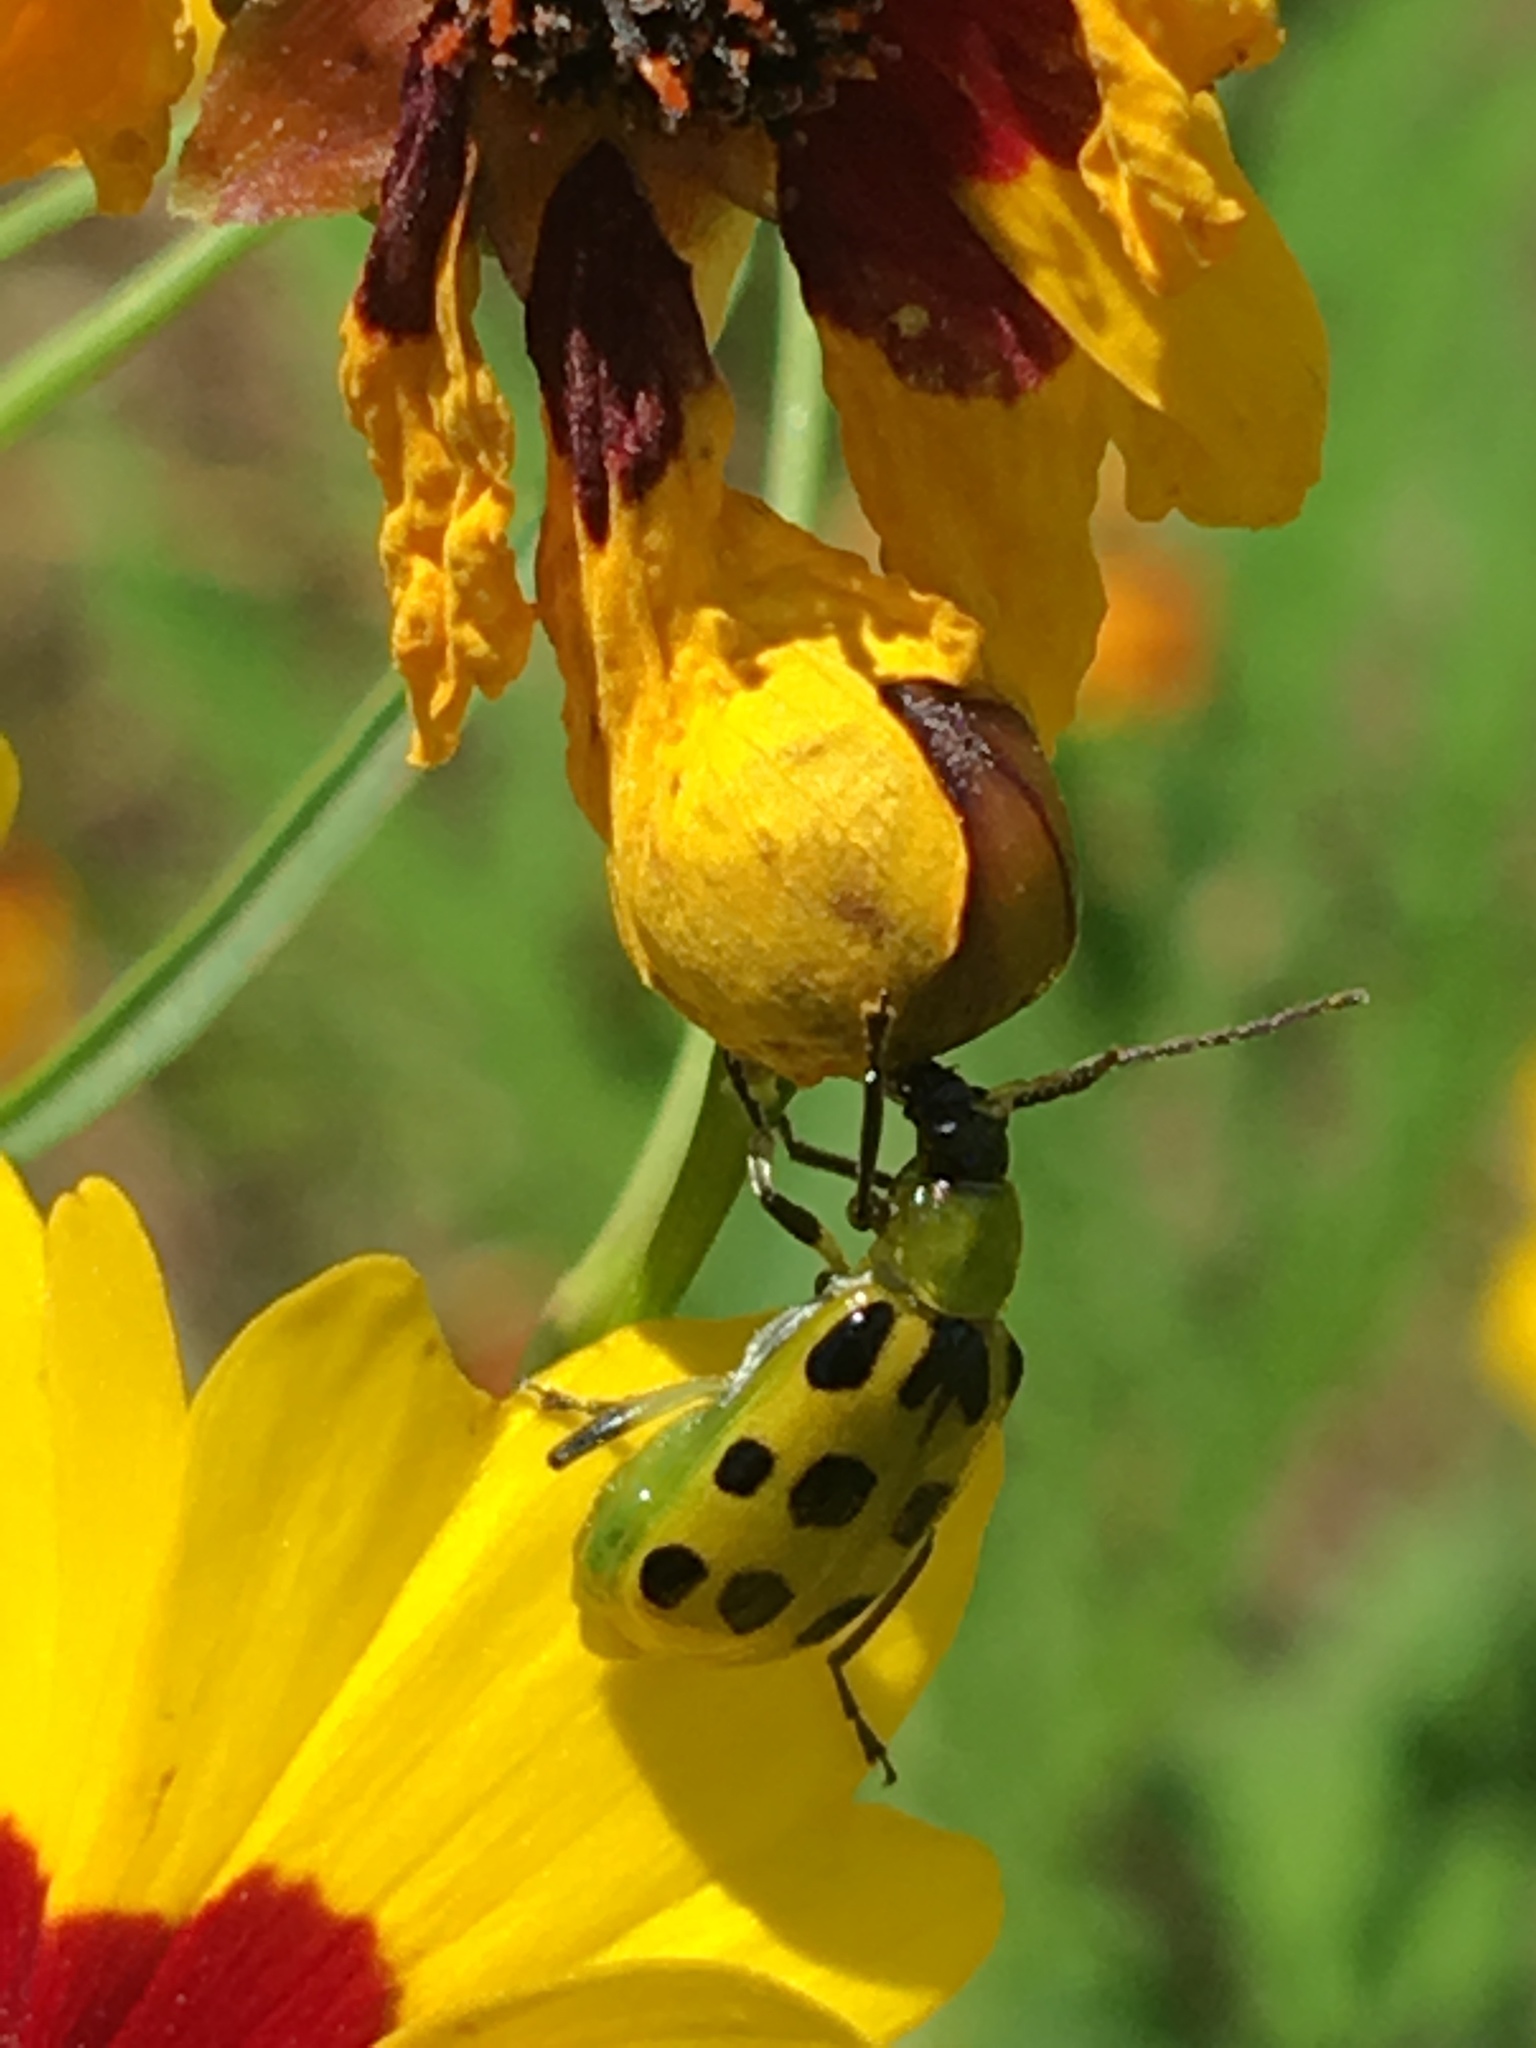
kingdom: Animalia
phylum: Arthropoda
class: Insecta
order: Coleoptera
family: Chrysomelidae
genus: Diabrotica
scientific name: Diabrotica undecimpunctata
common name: Spotted cucumber beetle
